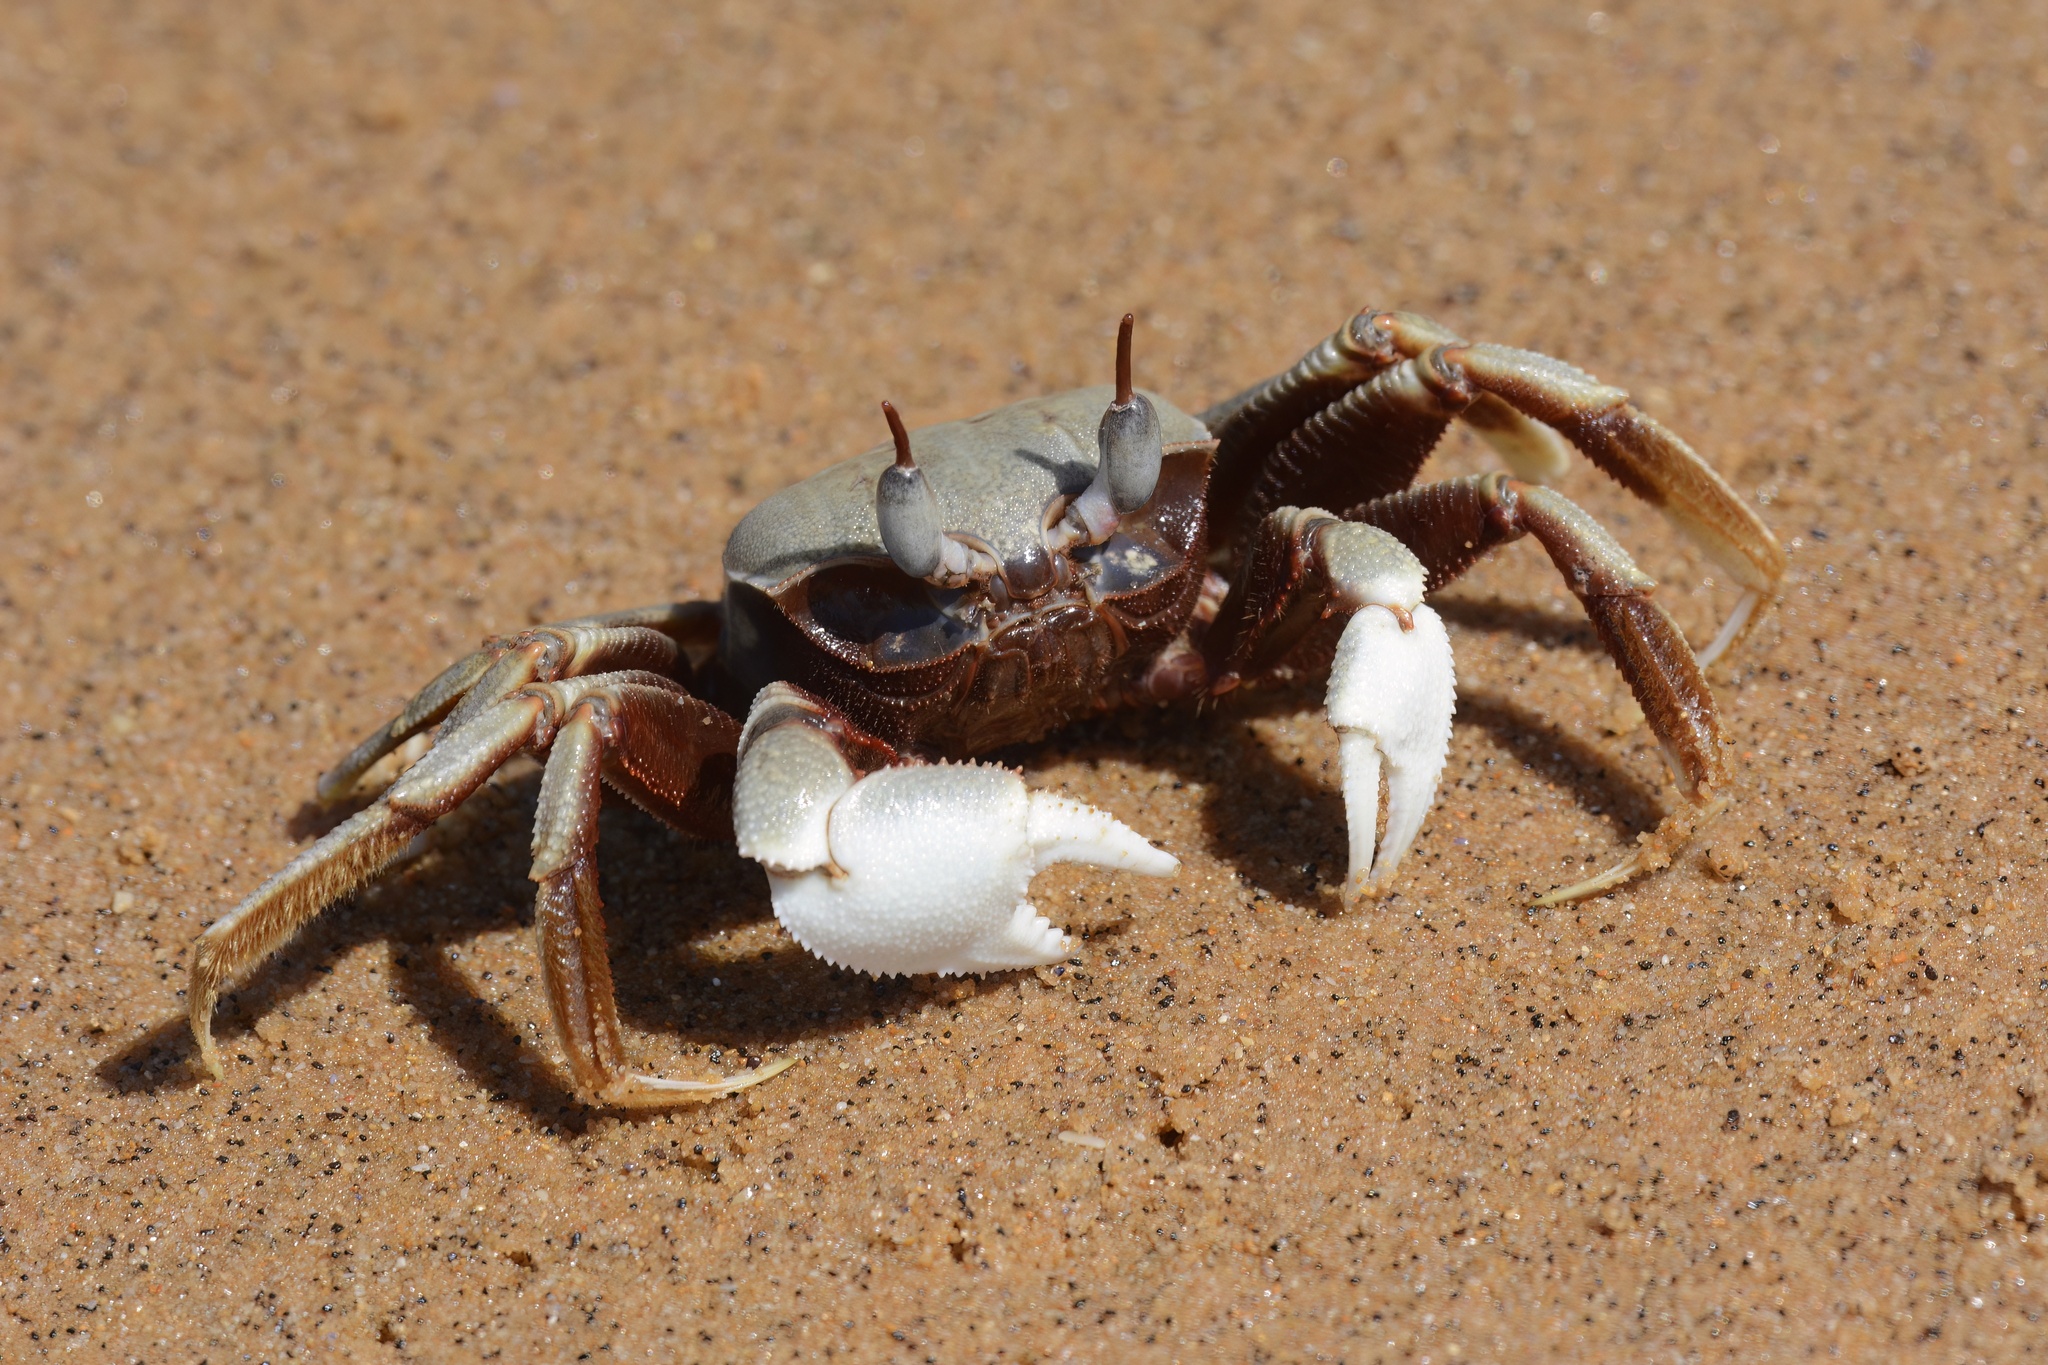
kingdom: Animalia
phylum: Arthropoda
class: Malacostraca
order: Decapoda
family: Ocypodidae
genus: Ocypode
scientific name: Ocypode ceratophthalmus
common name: Indo-pacific ghost crab
